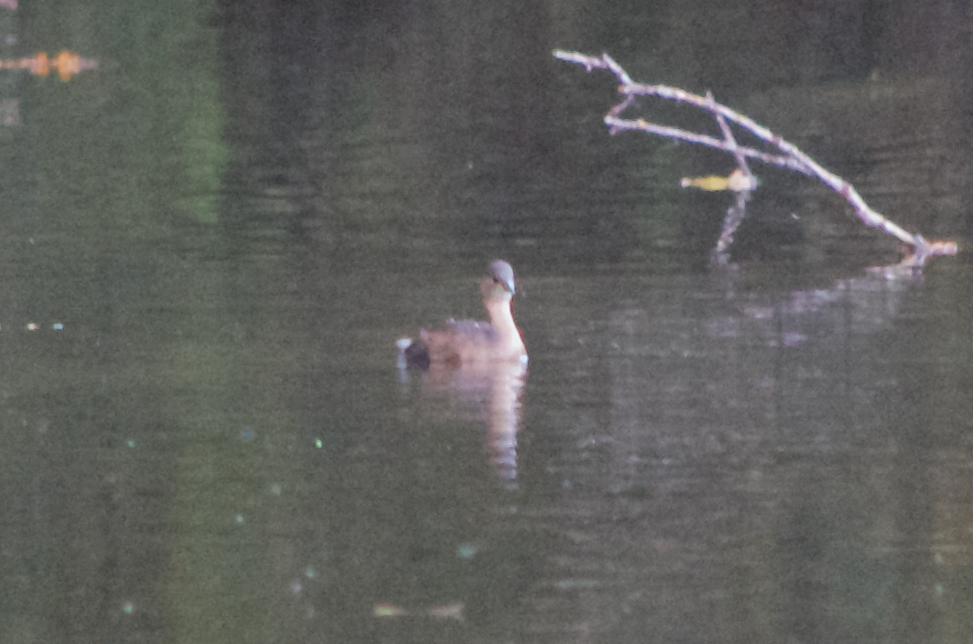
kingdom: Animalia
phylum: Chordata
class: Aves
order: Podicipediformes
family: Podicipedidae
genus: Tachybaptus
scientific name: Tachybaptus ruficollis
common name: Little grebe
